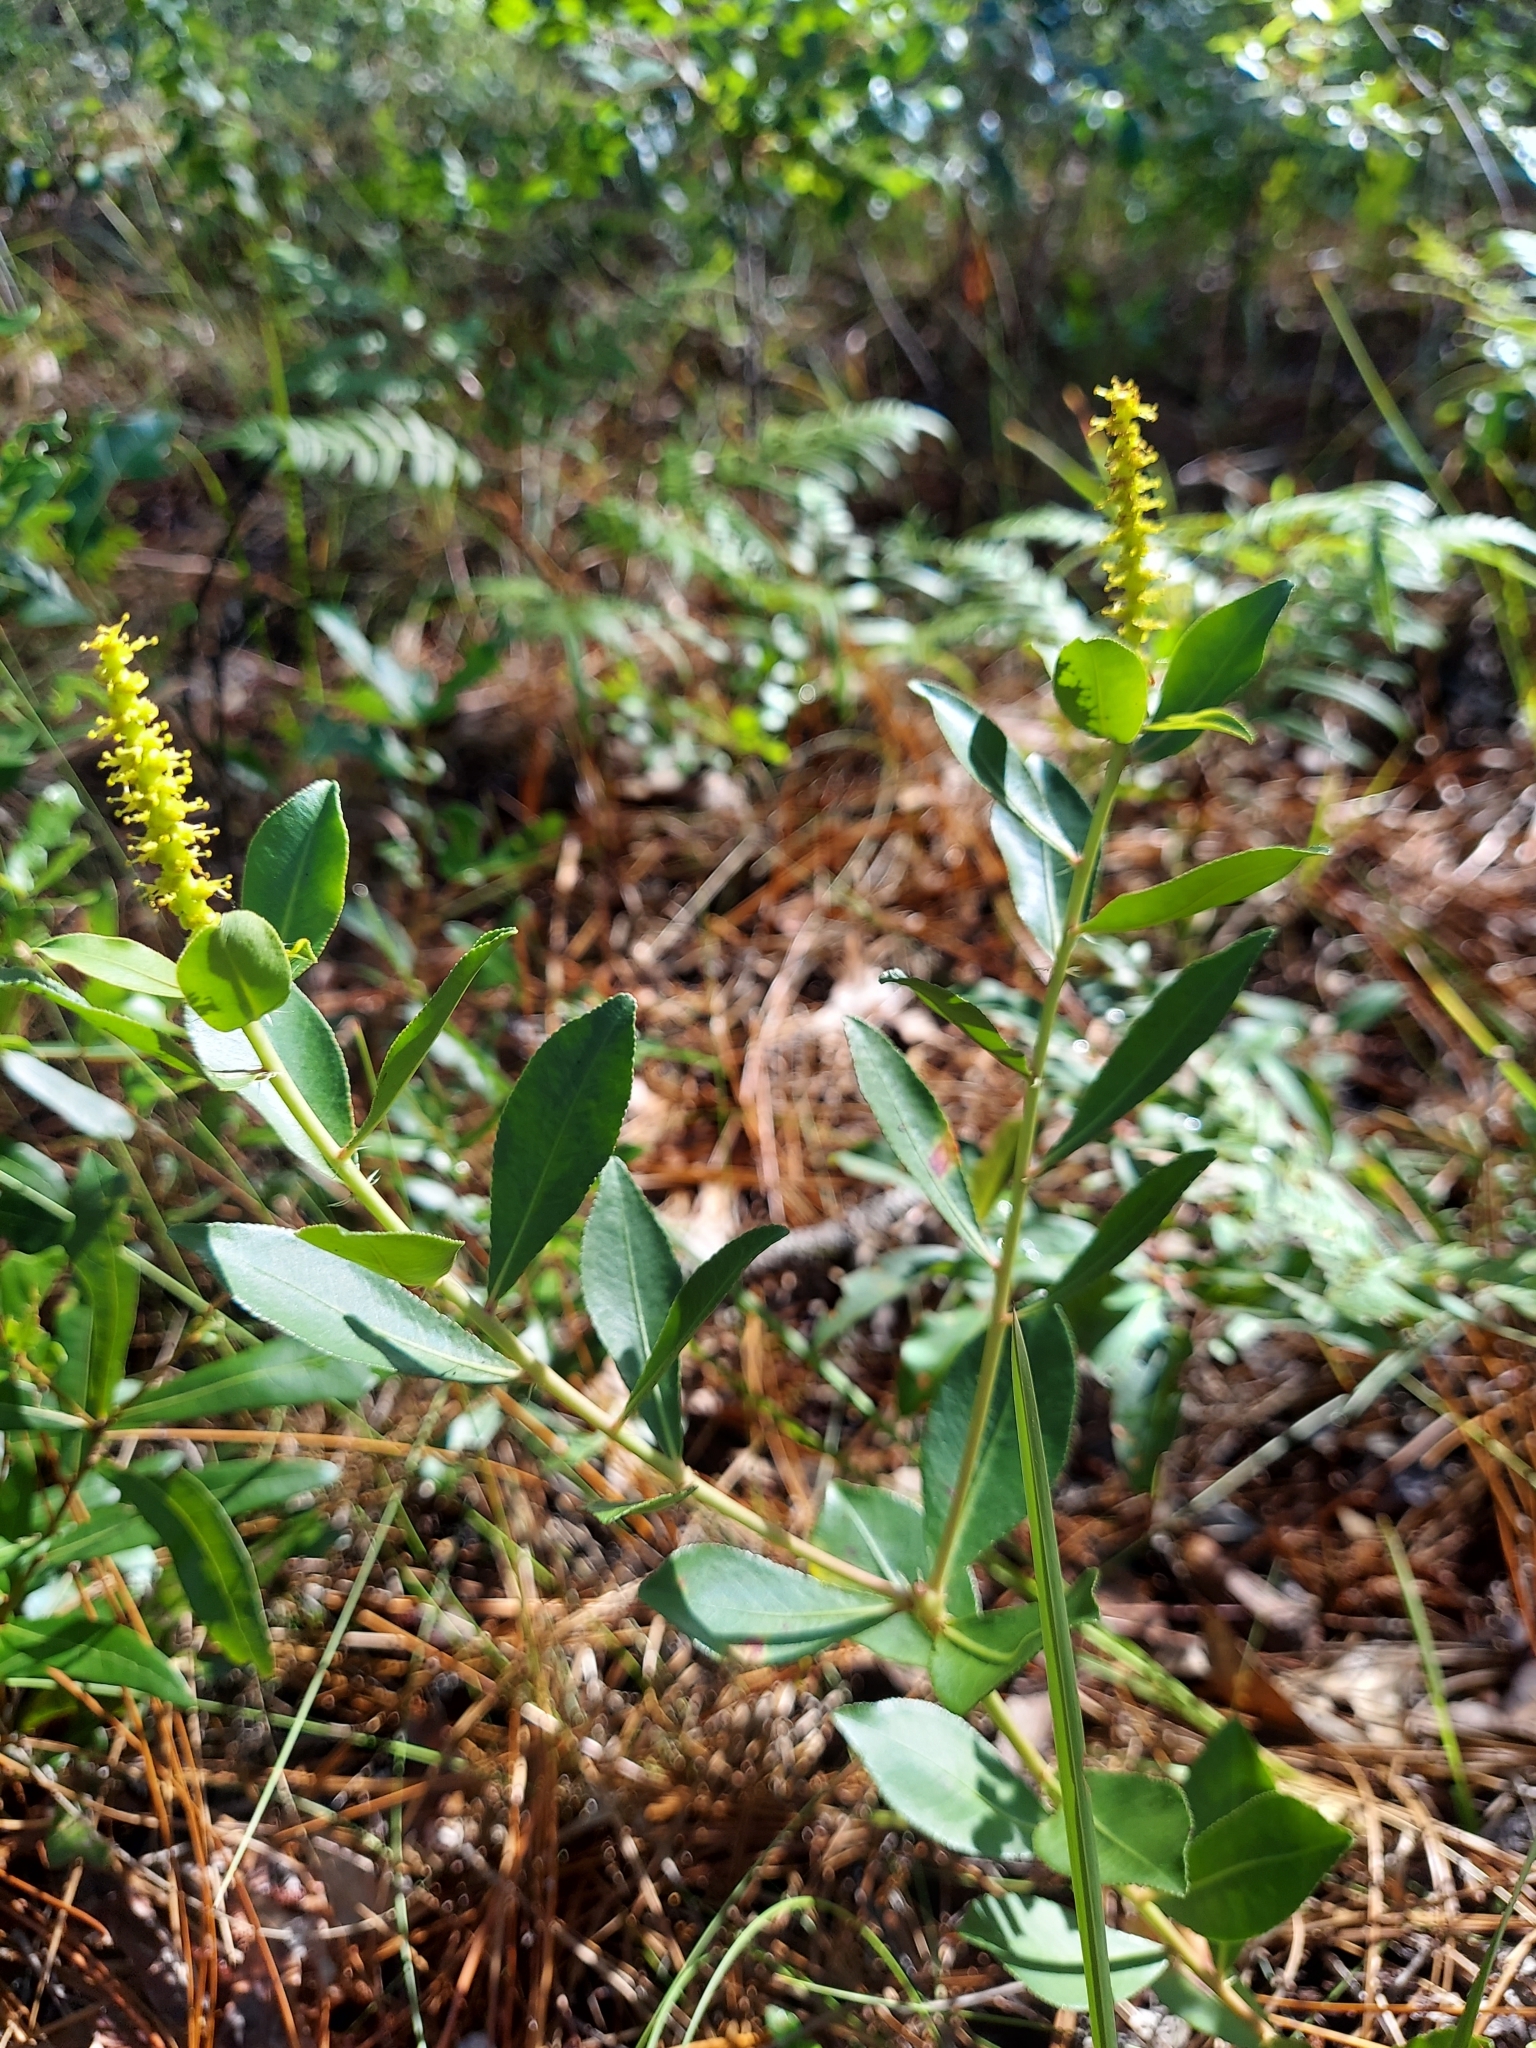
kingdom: Plantae
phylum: Tracheophyta
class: Magnoliopsida
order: Malpighiales
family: Euphorbiaceae
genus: Stillingia
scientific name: Stillingia sylvatica
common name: Queen's-delight
